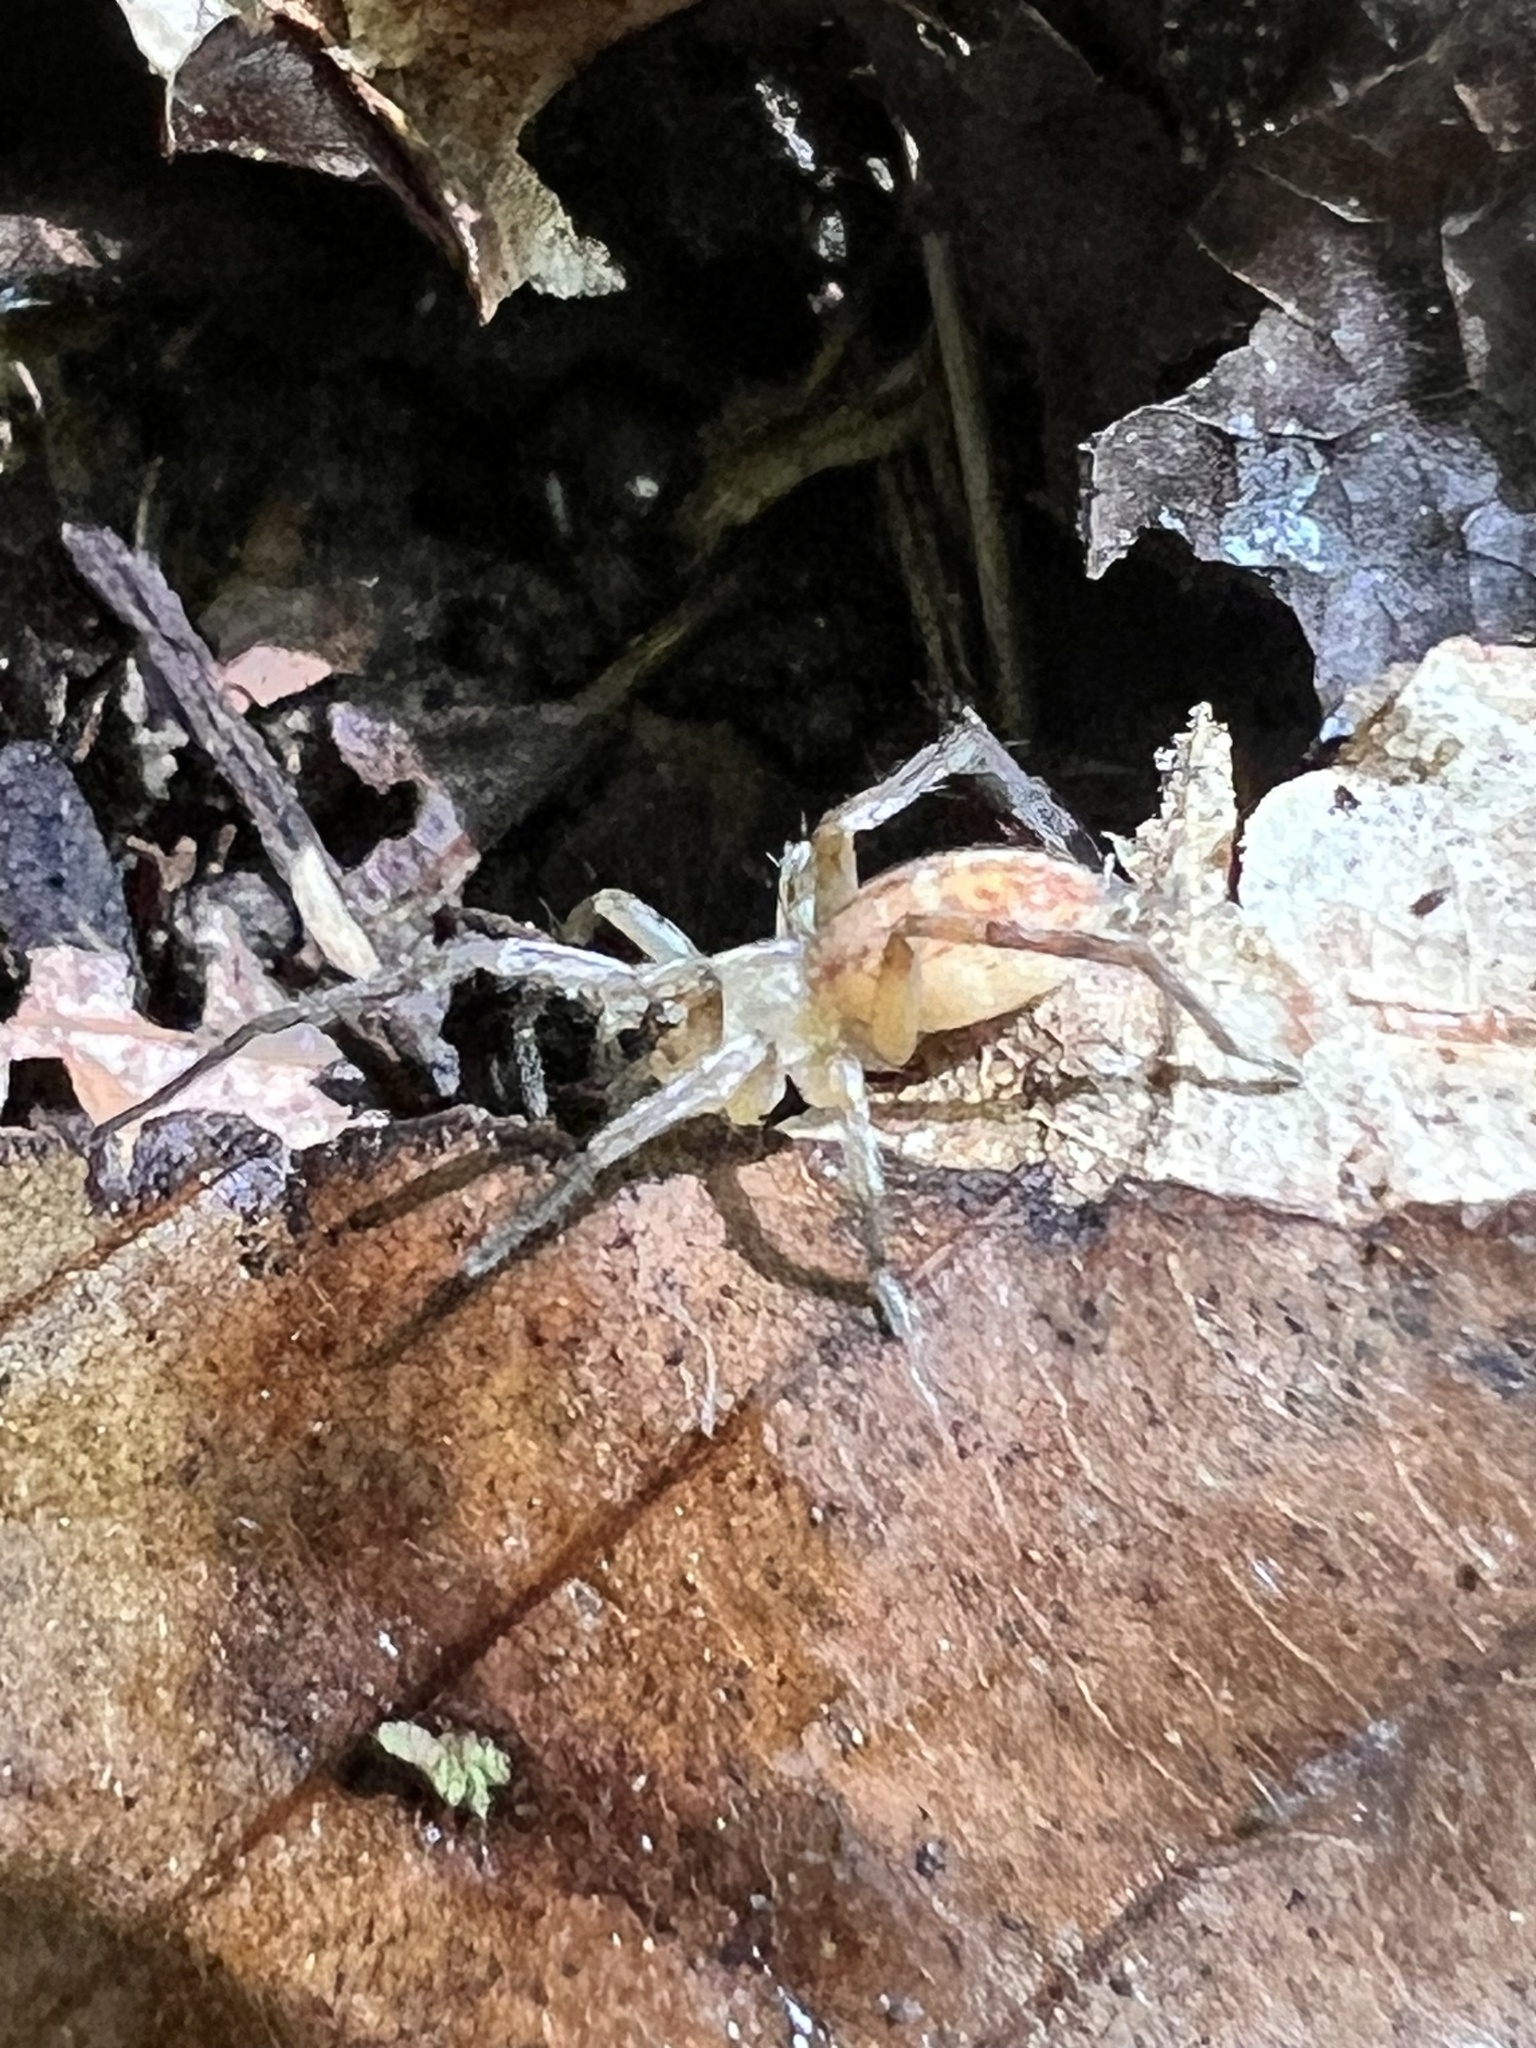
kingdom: Animalia
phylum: Arthropoda
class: Arachnida
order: Araneae
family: Anyphaenidae
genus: Hibana
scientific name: Hibana gracilis
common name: Garden ghost spider
